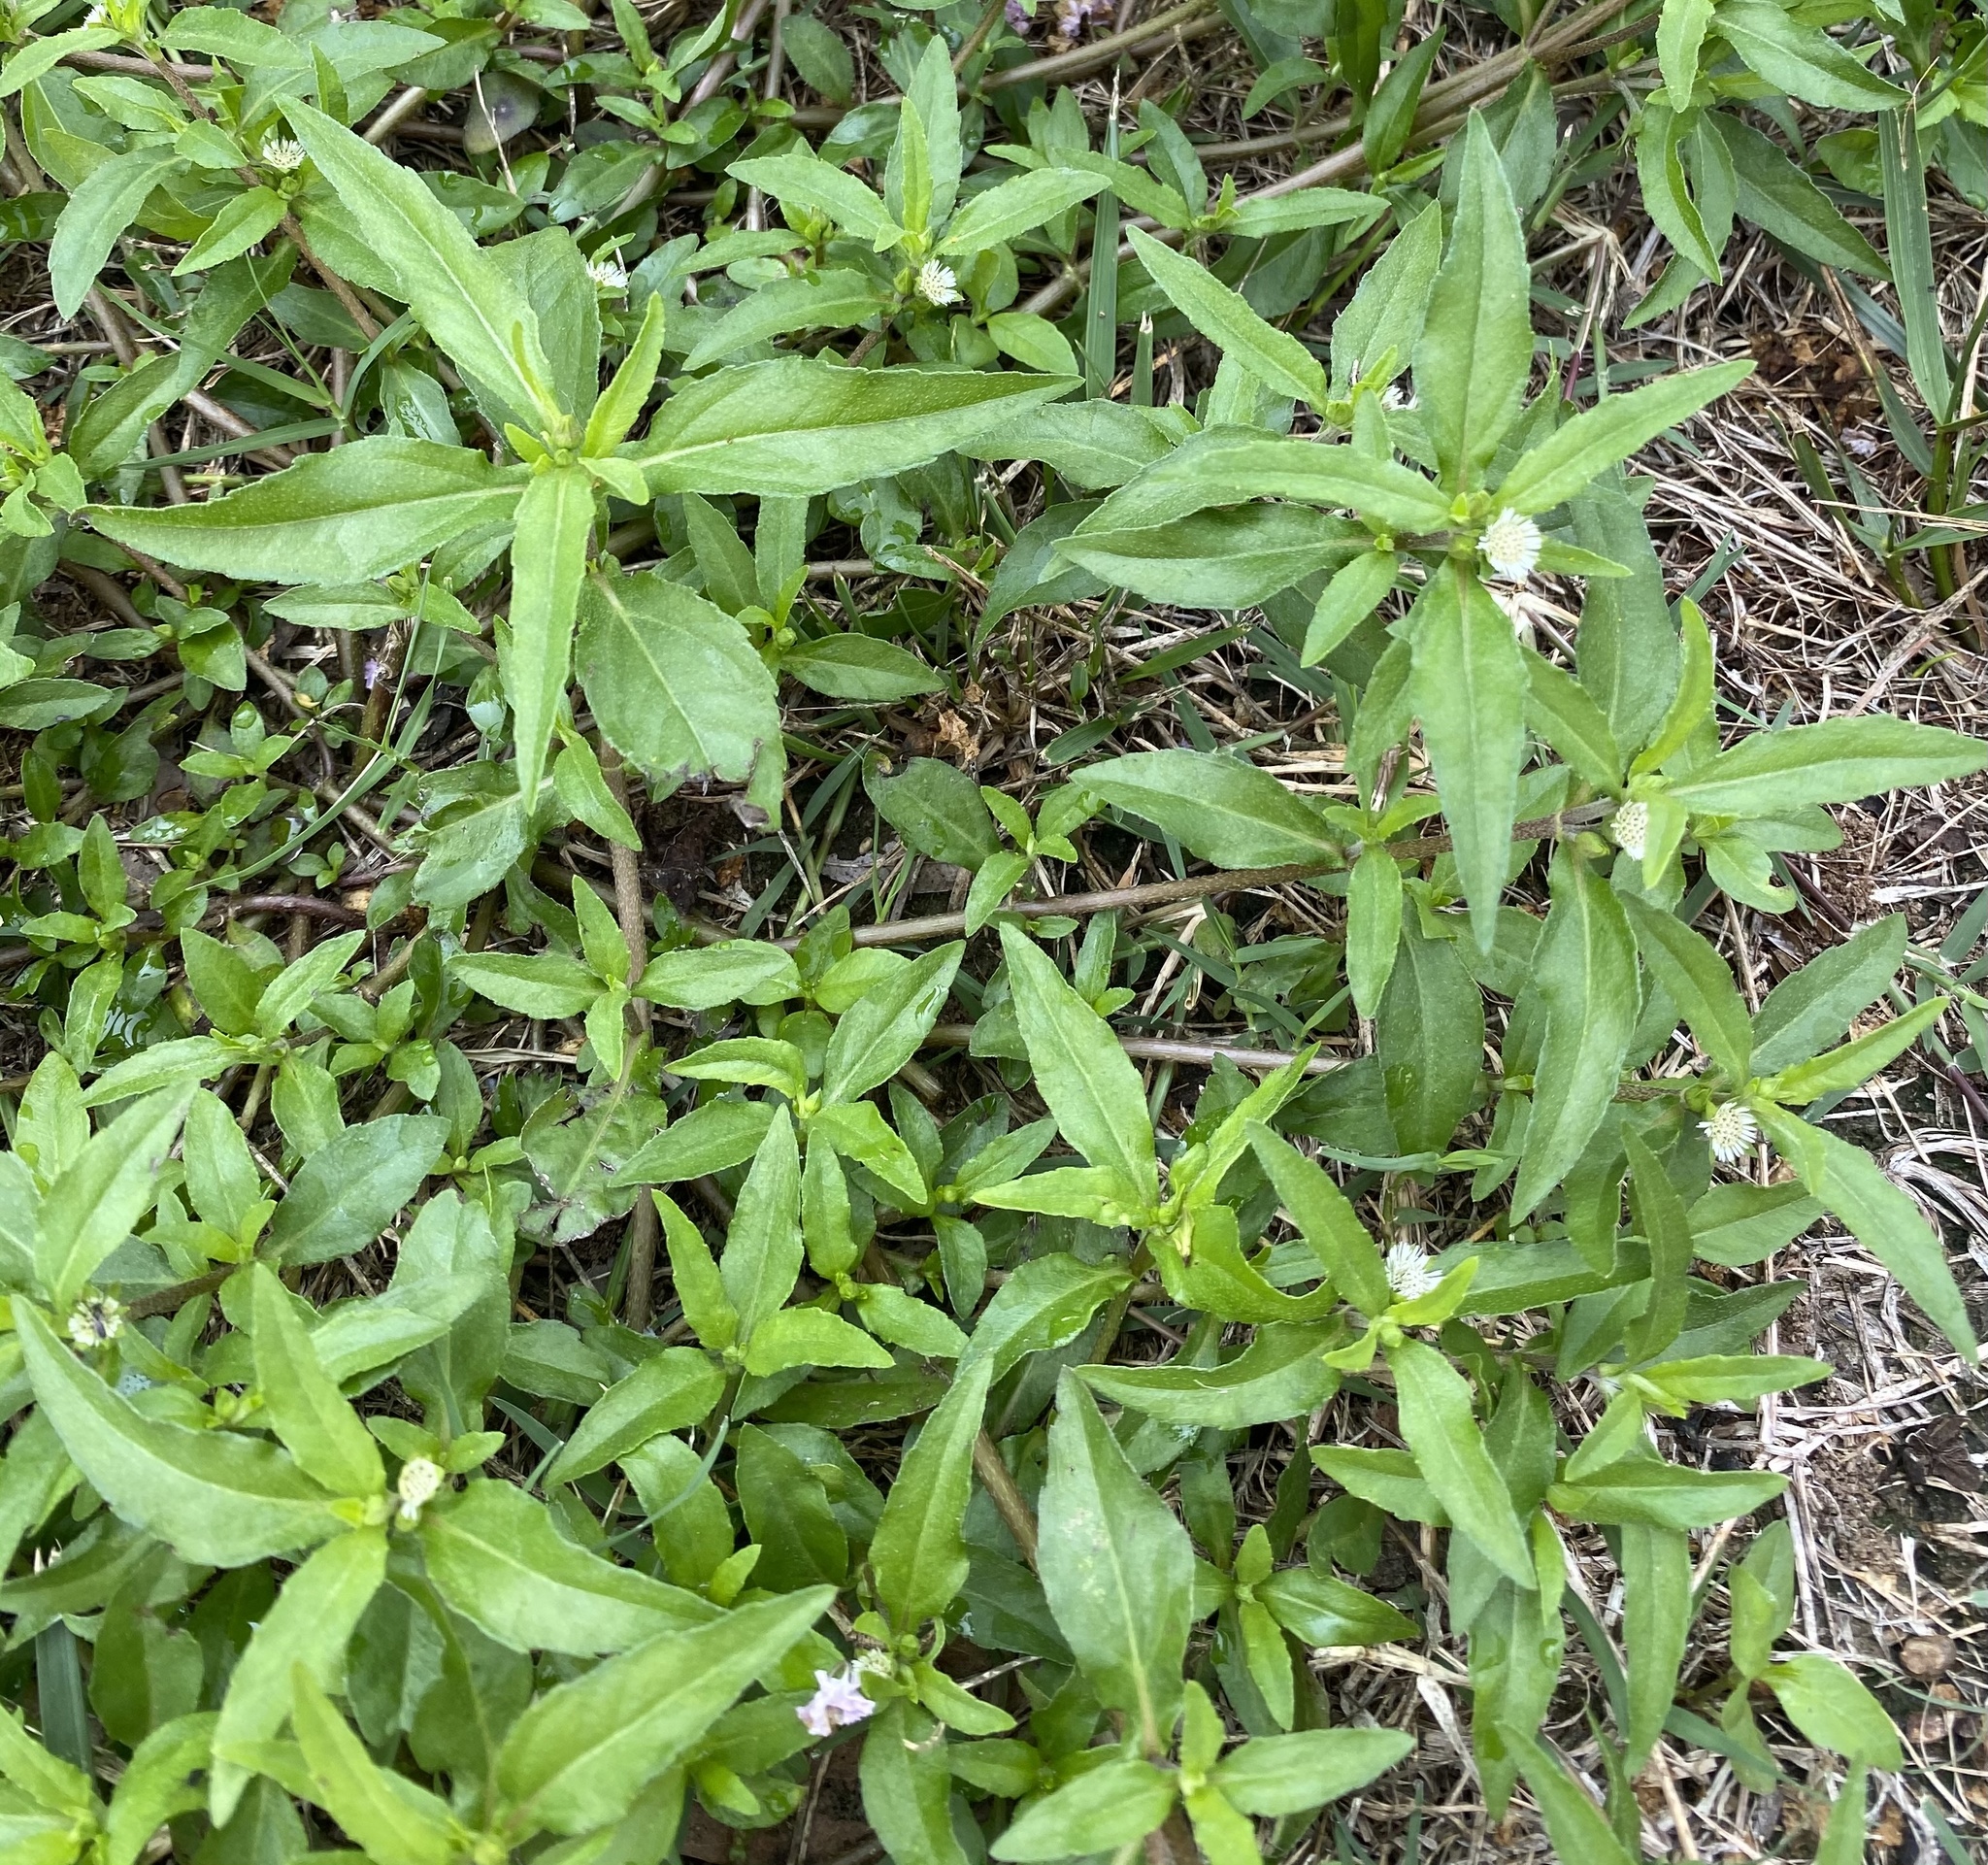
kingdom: Plantae
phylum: Tracheophyta
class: Magnoliopsida
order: Asterales
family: Asteraceae
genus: Eclipta
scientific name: Eclipta prostrata
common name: False daisy
